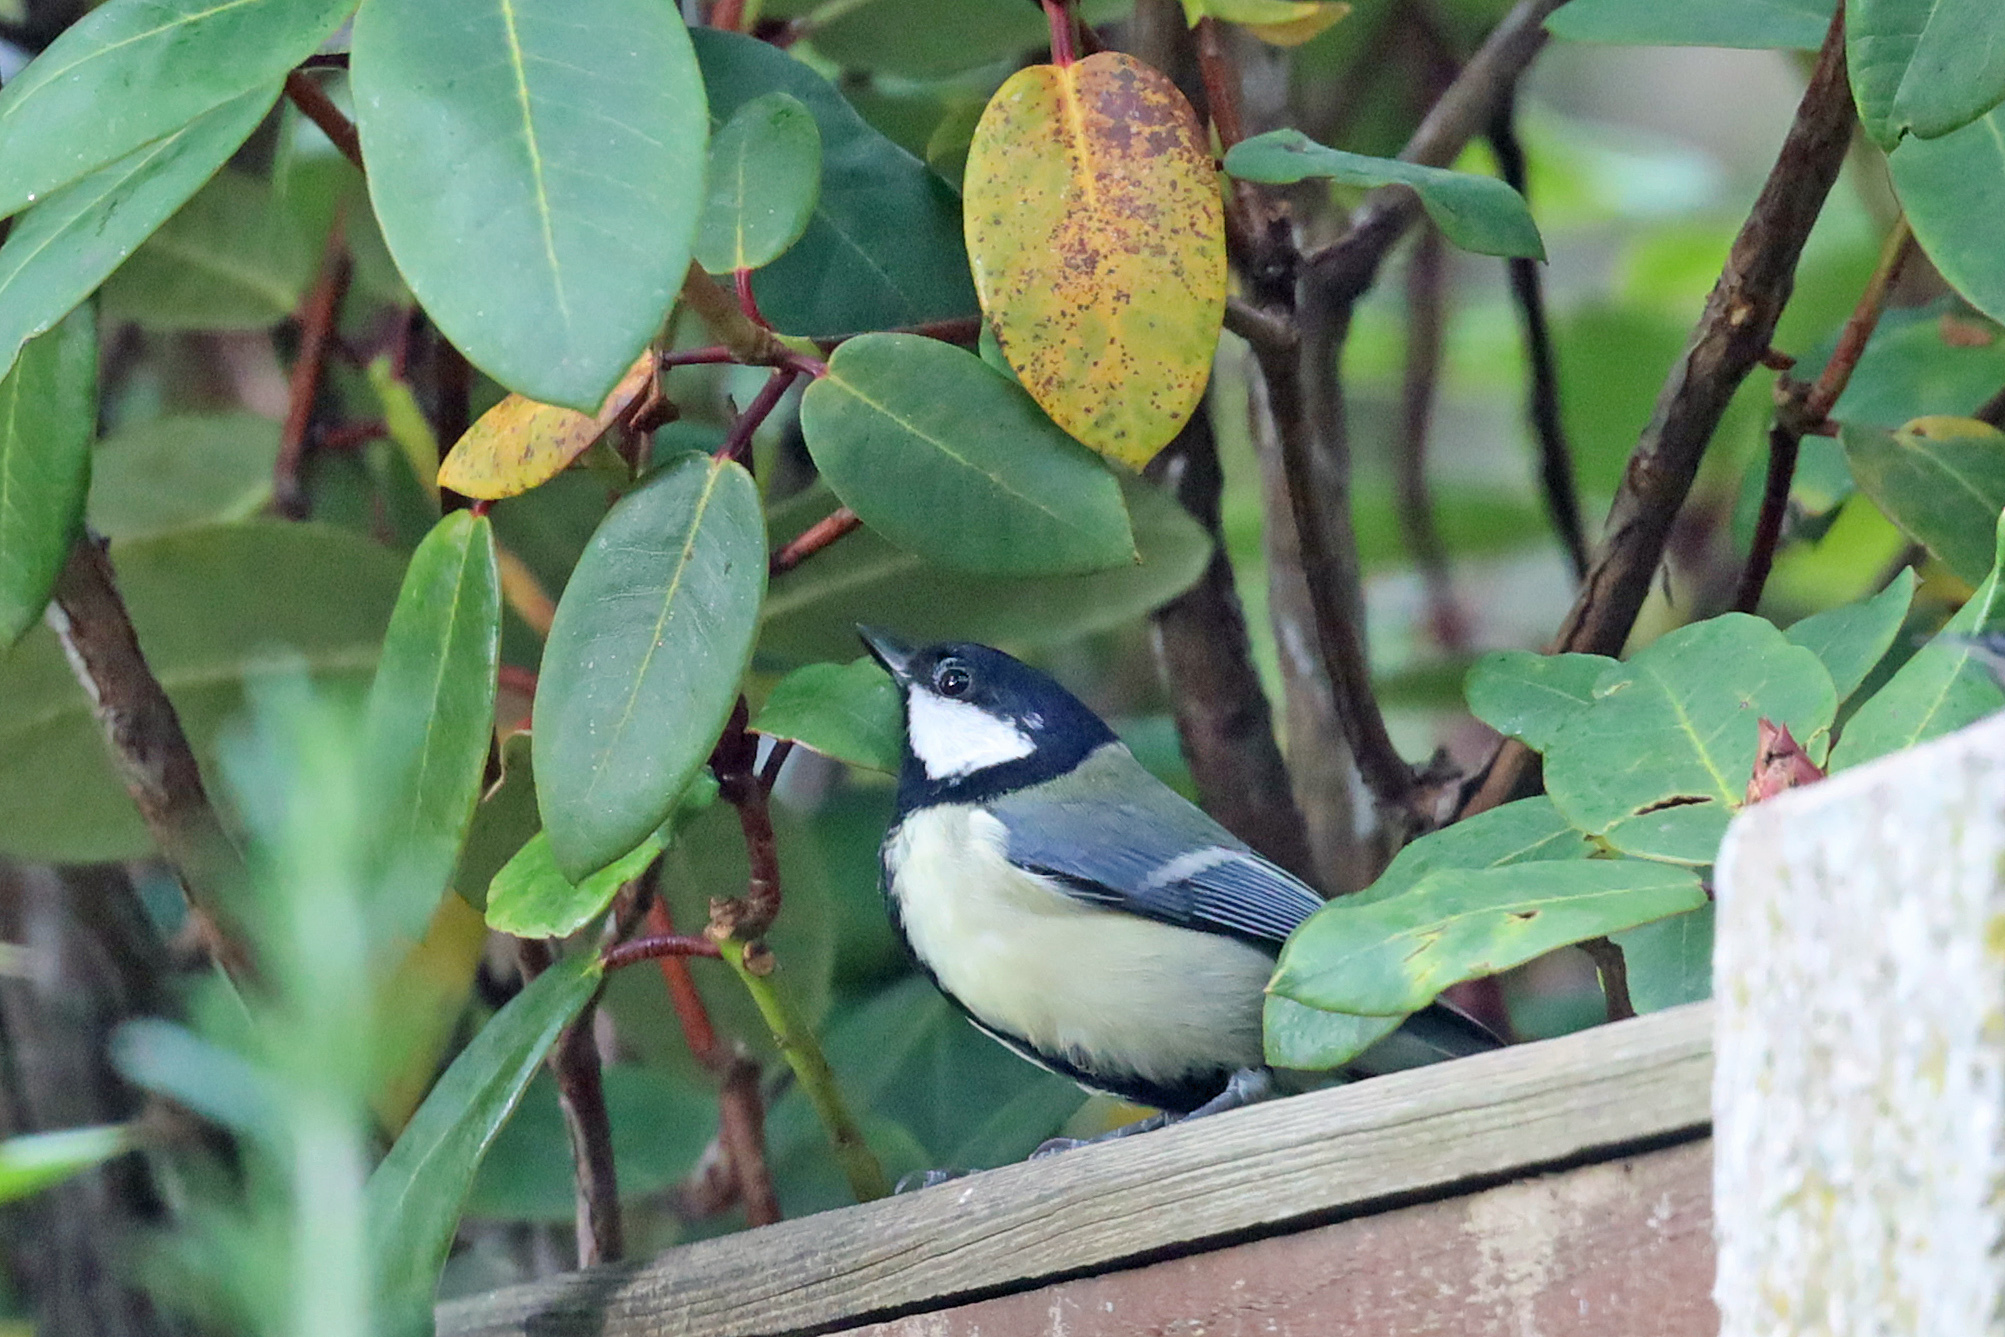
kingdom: Animalia
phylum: Chordata
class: Aves
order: Passeriformes
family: Paridae
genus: Parus
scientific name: Parus major
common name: Great tit
